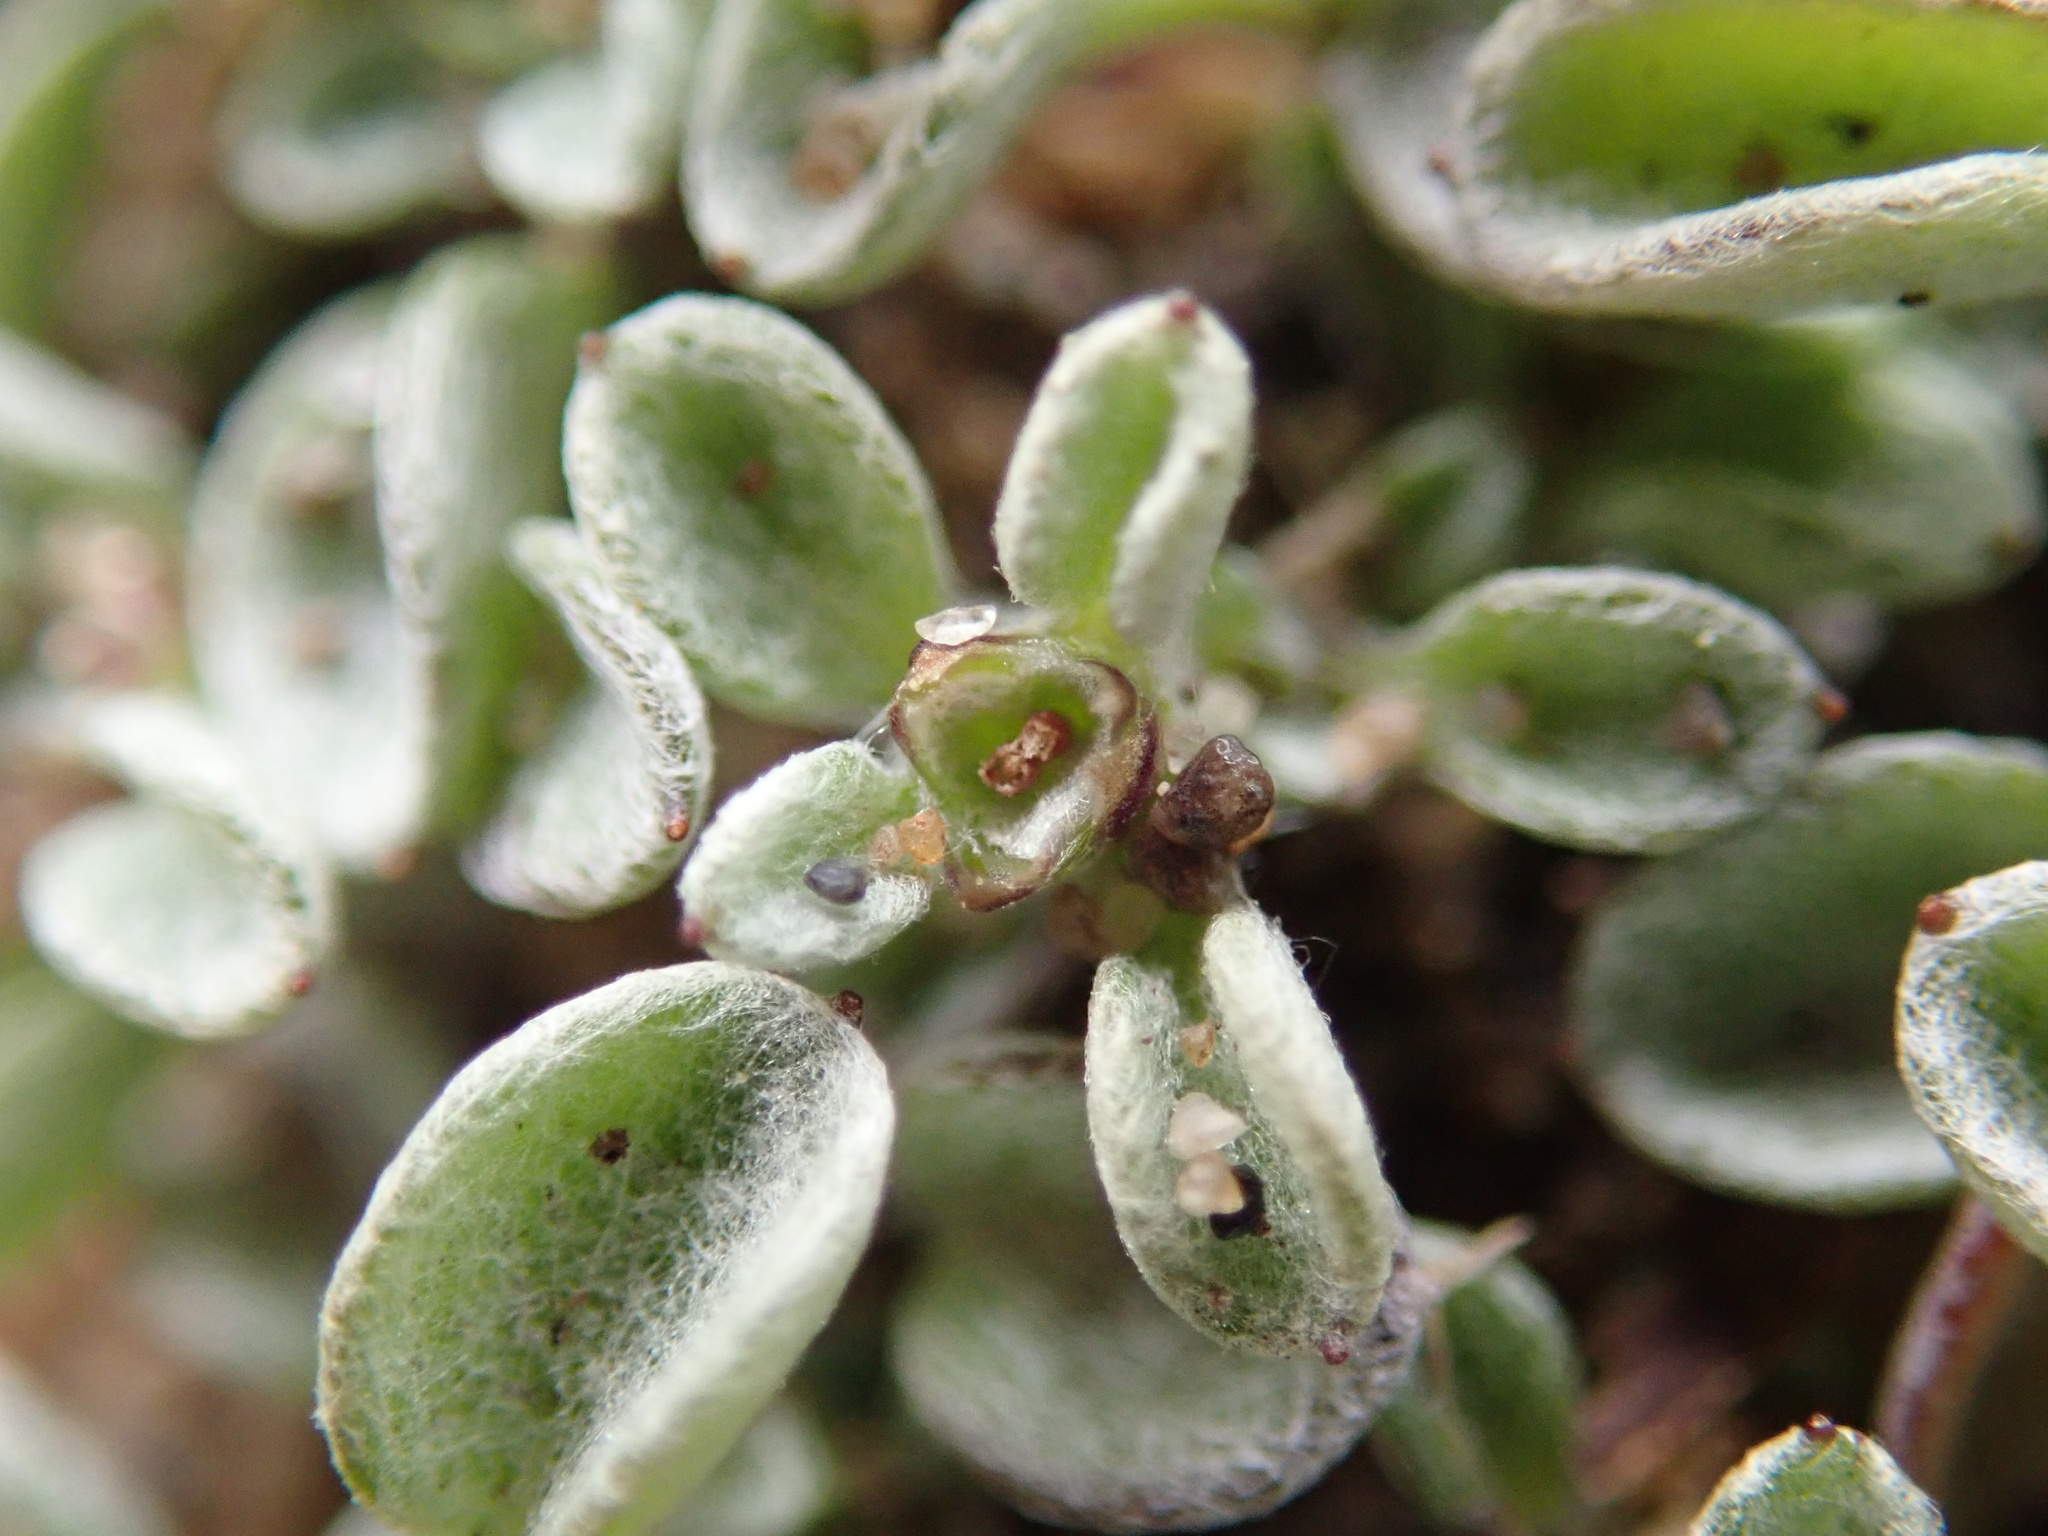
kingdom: Plantae
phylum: Tracheophyta
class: Magnoliopsida
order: Asterales
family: Asteraceae
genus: Hesperevax
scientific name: Hesperevax sparsiflora
